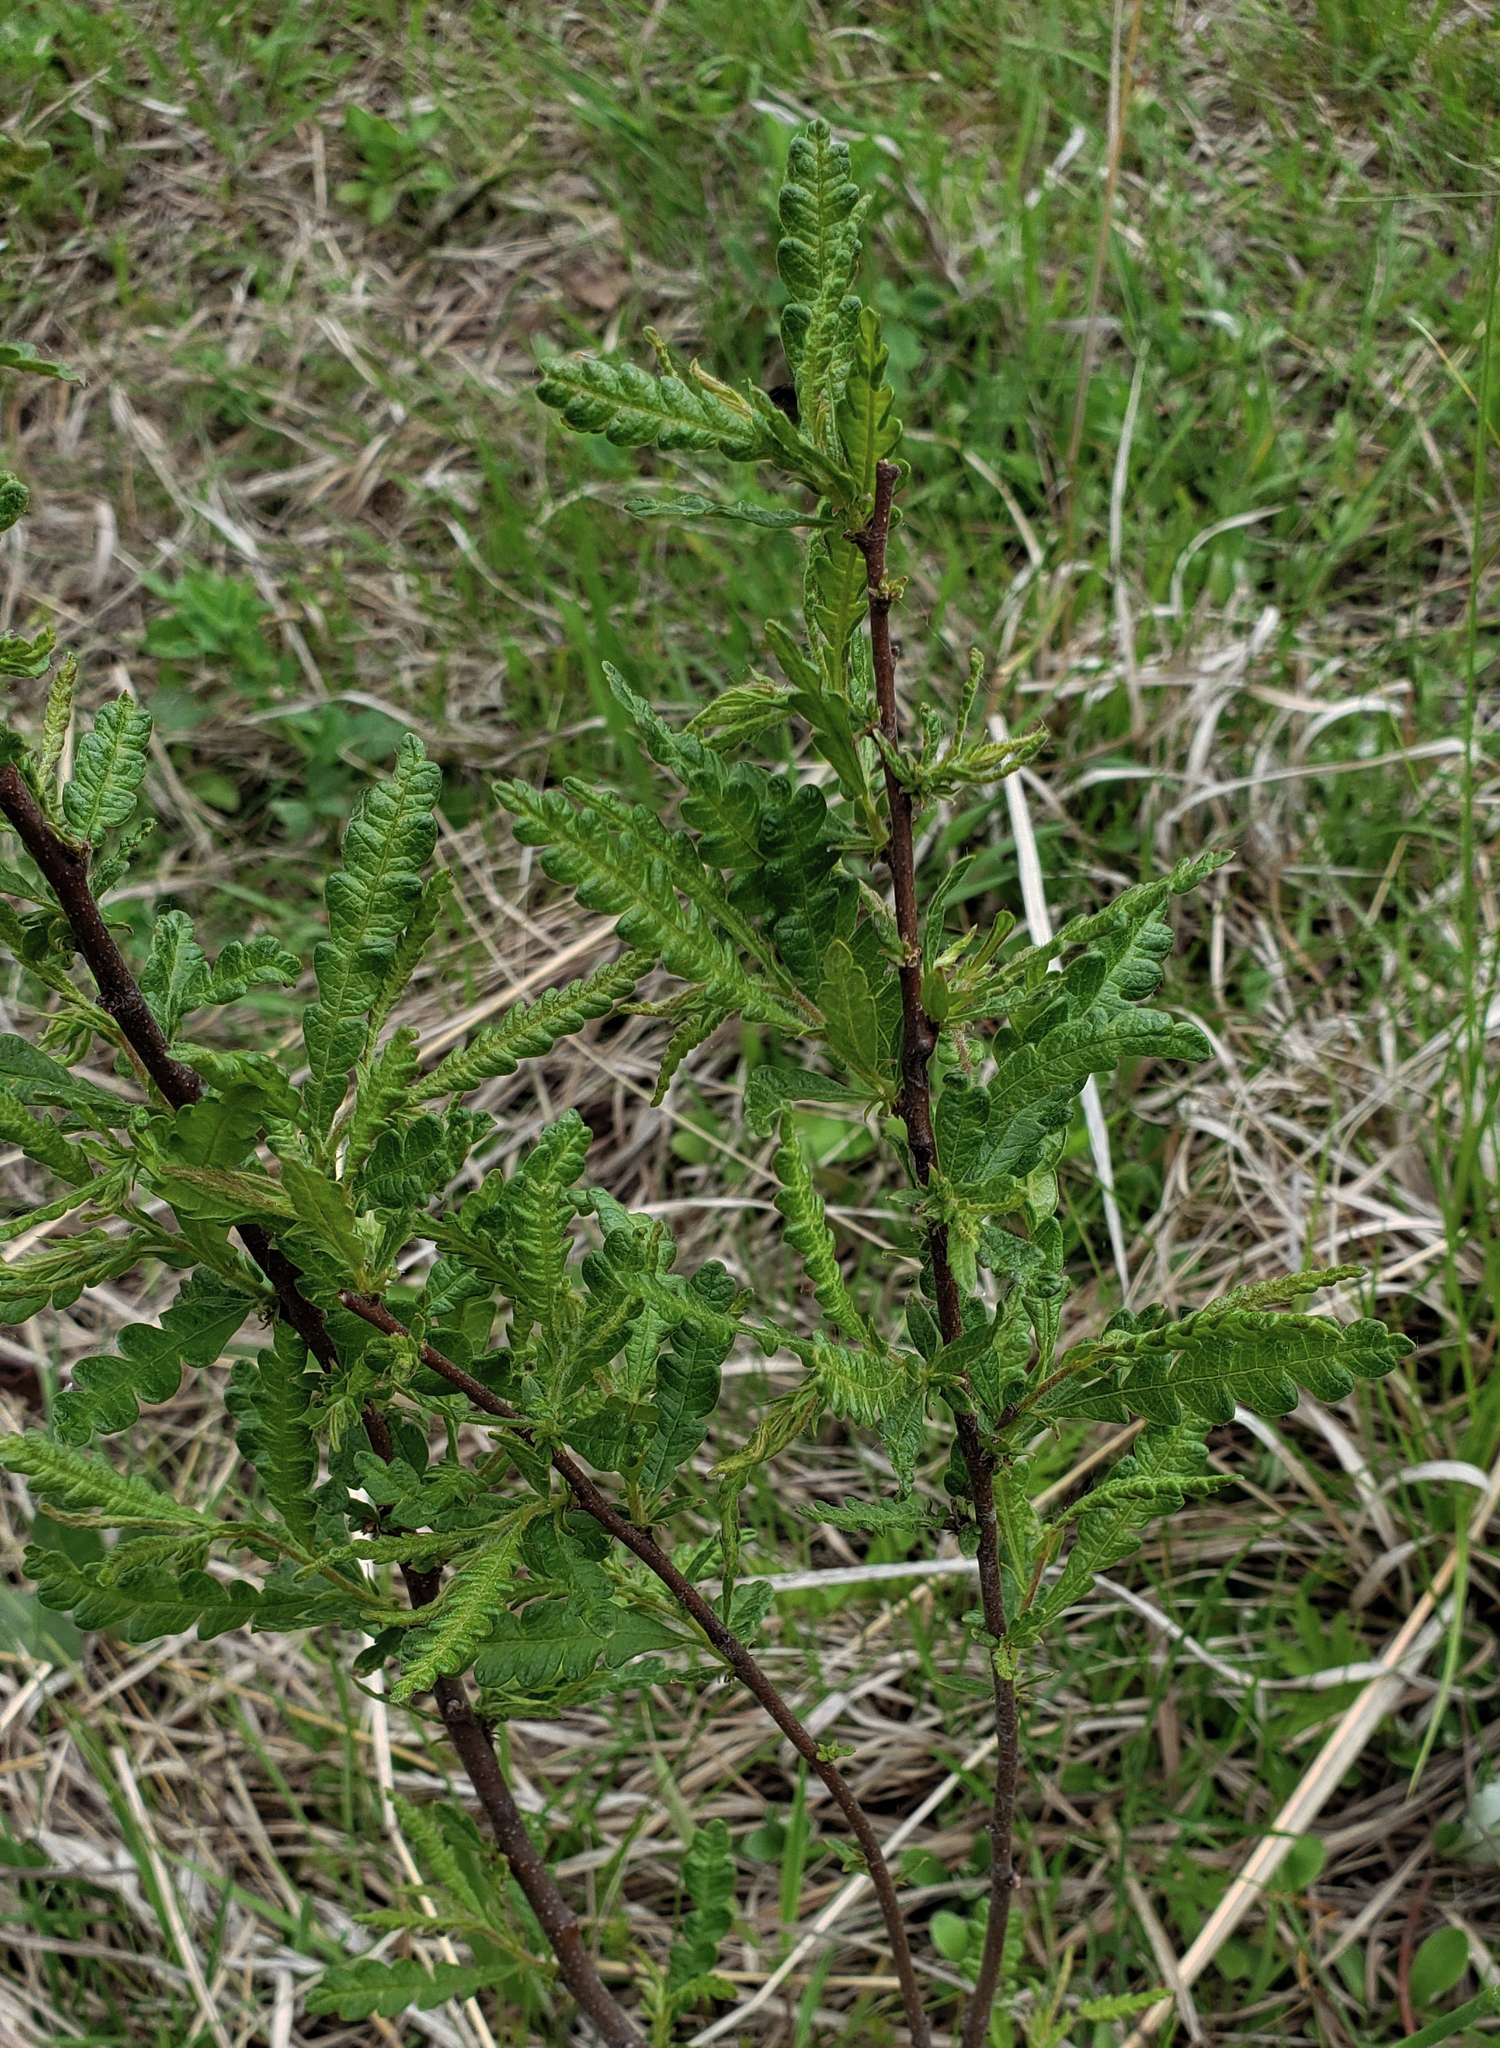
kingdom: Plantae
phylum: Tracheophyta
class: Magnoliopsida
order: Fagales
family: Myricaceae
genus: Comptonia
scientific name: Comptonia peregrina
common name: Sweet-fern
